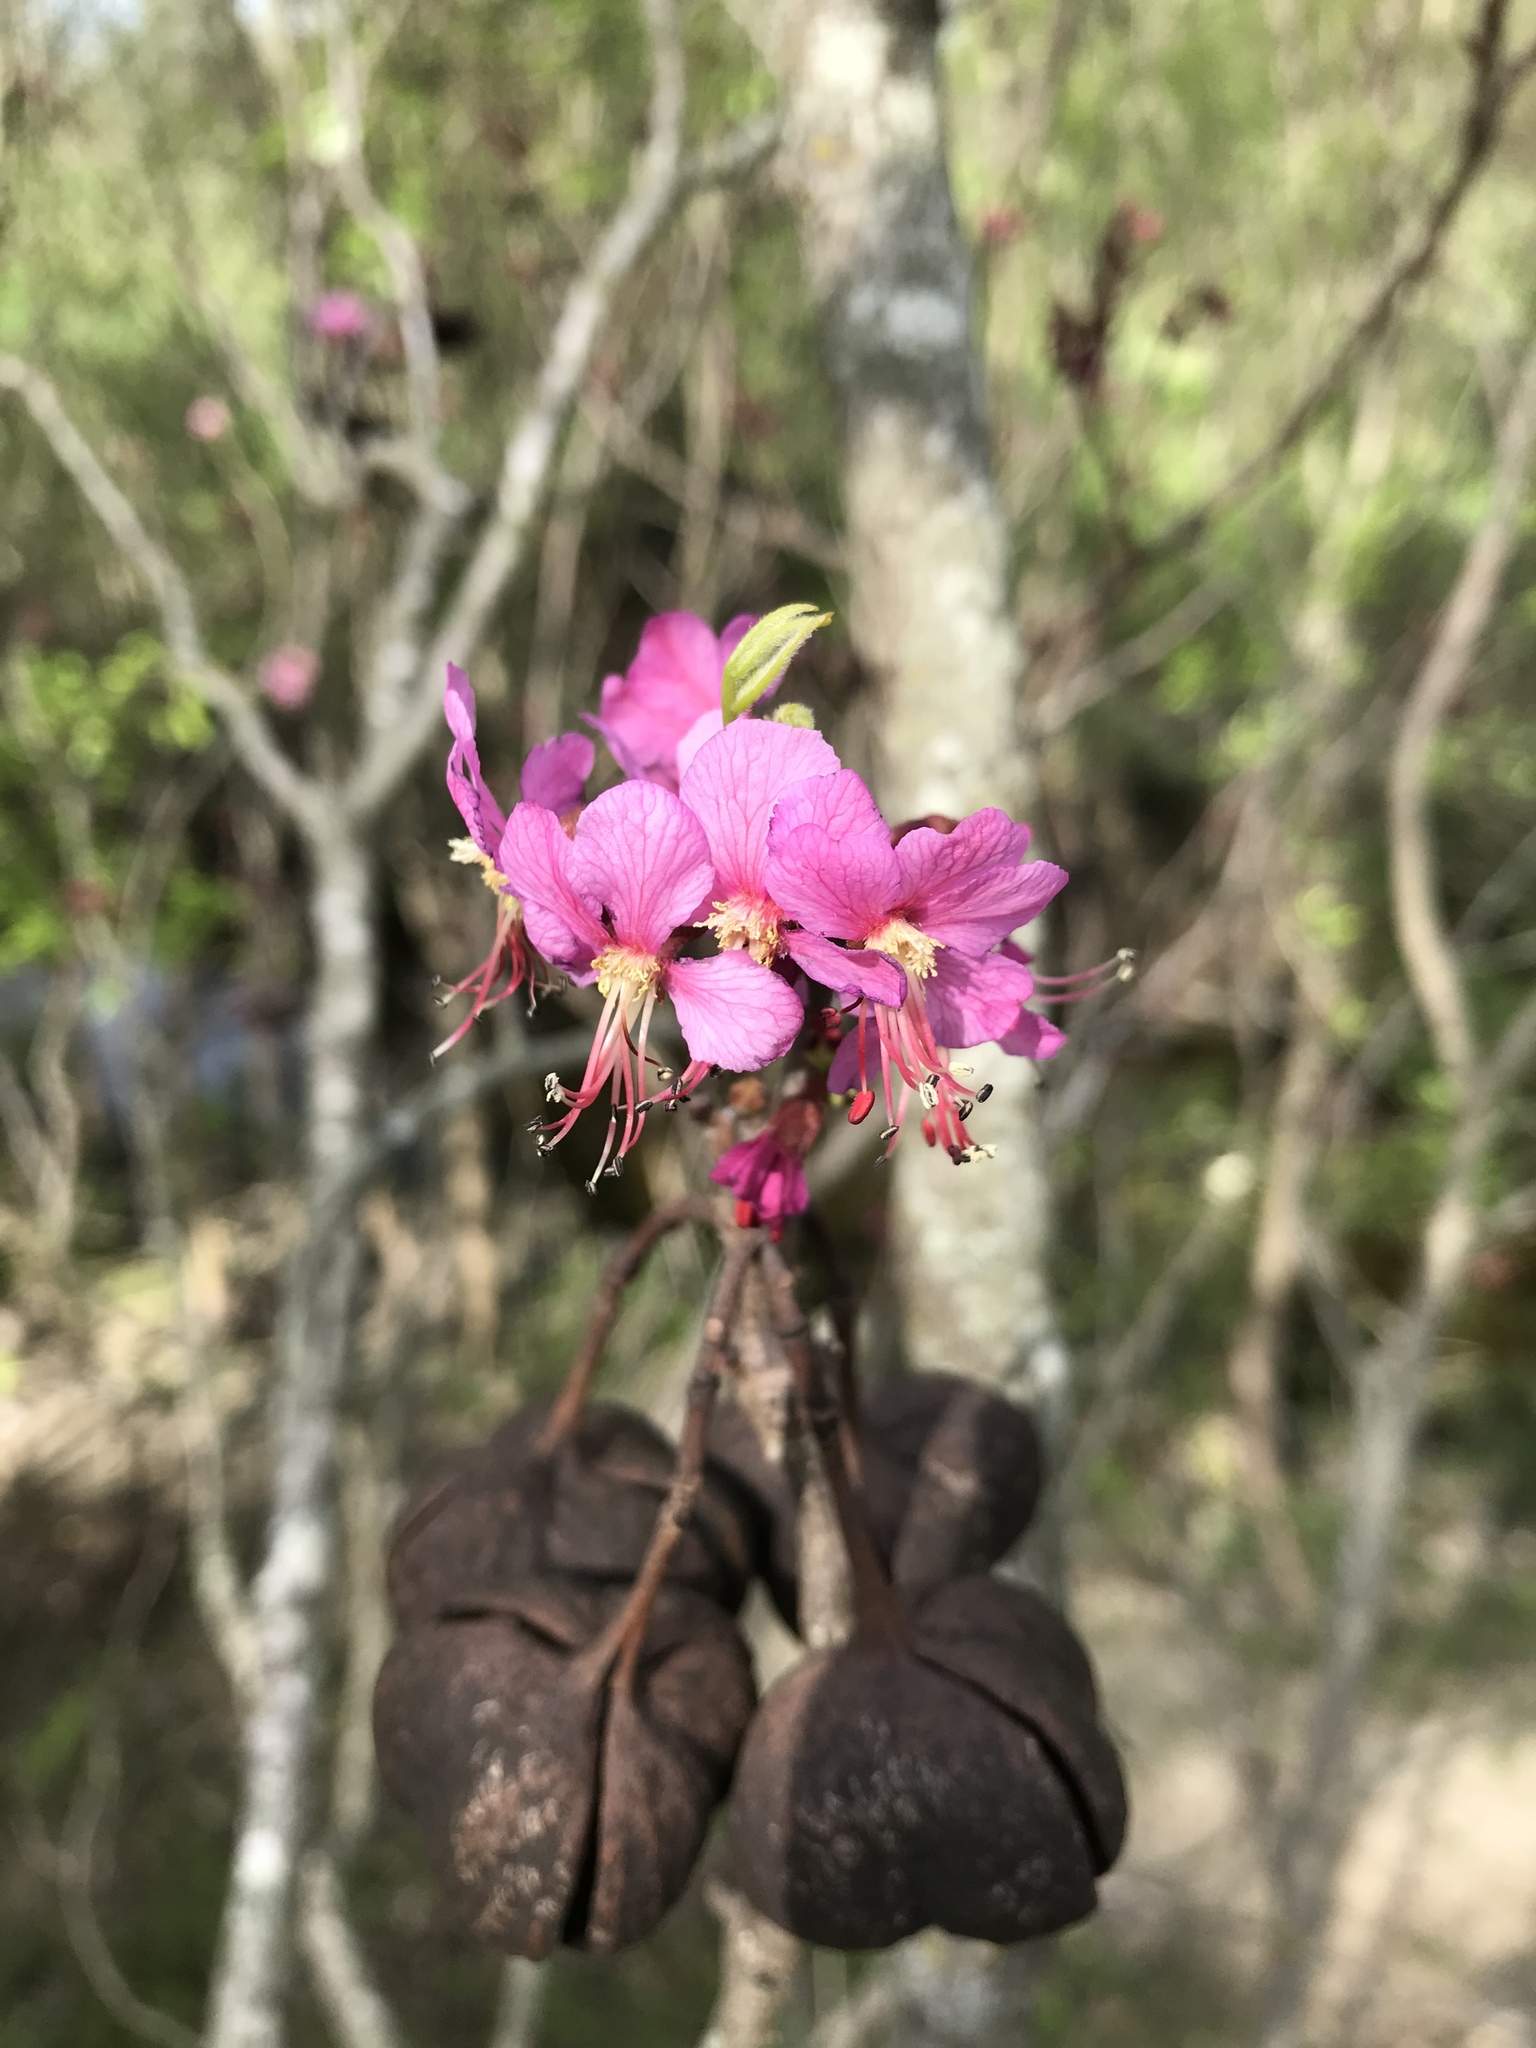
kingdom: Plantae
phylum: Tracheophyta
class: Magnoliopsida
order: Sapindales
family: Sapindaceae
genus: Ungnadia
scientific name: Ungnadia speciosa
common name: Texas-buckeye
